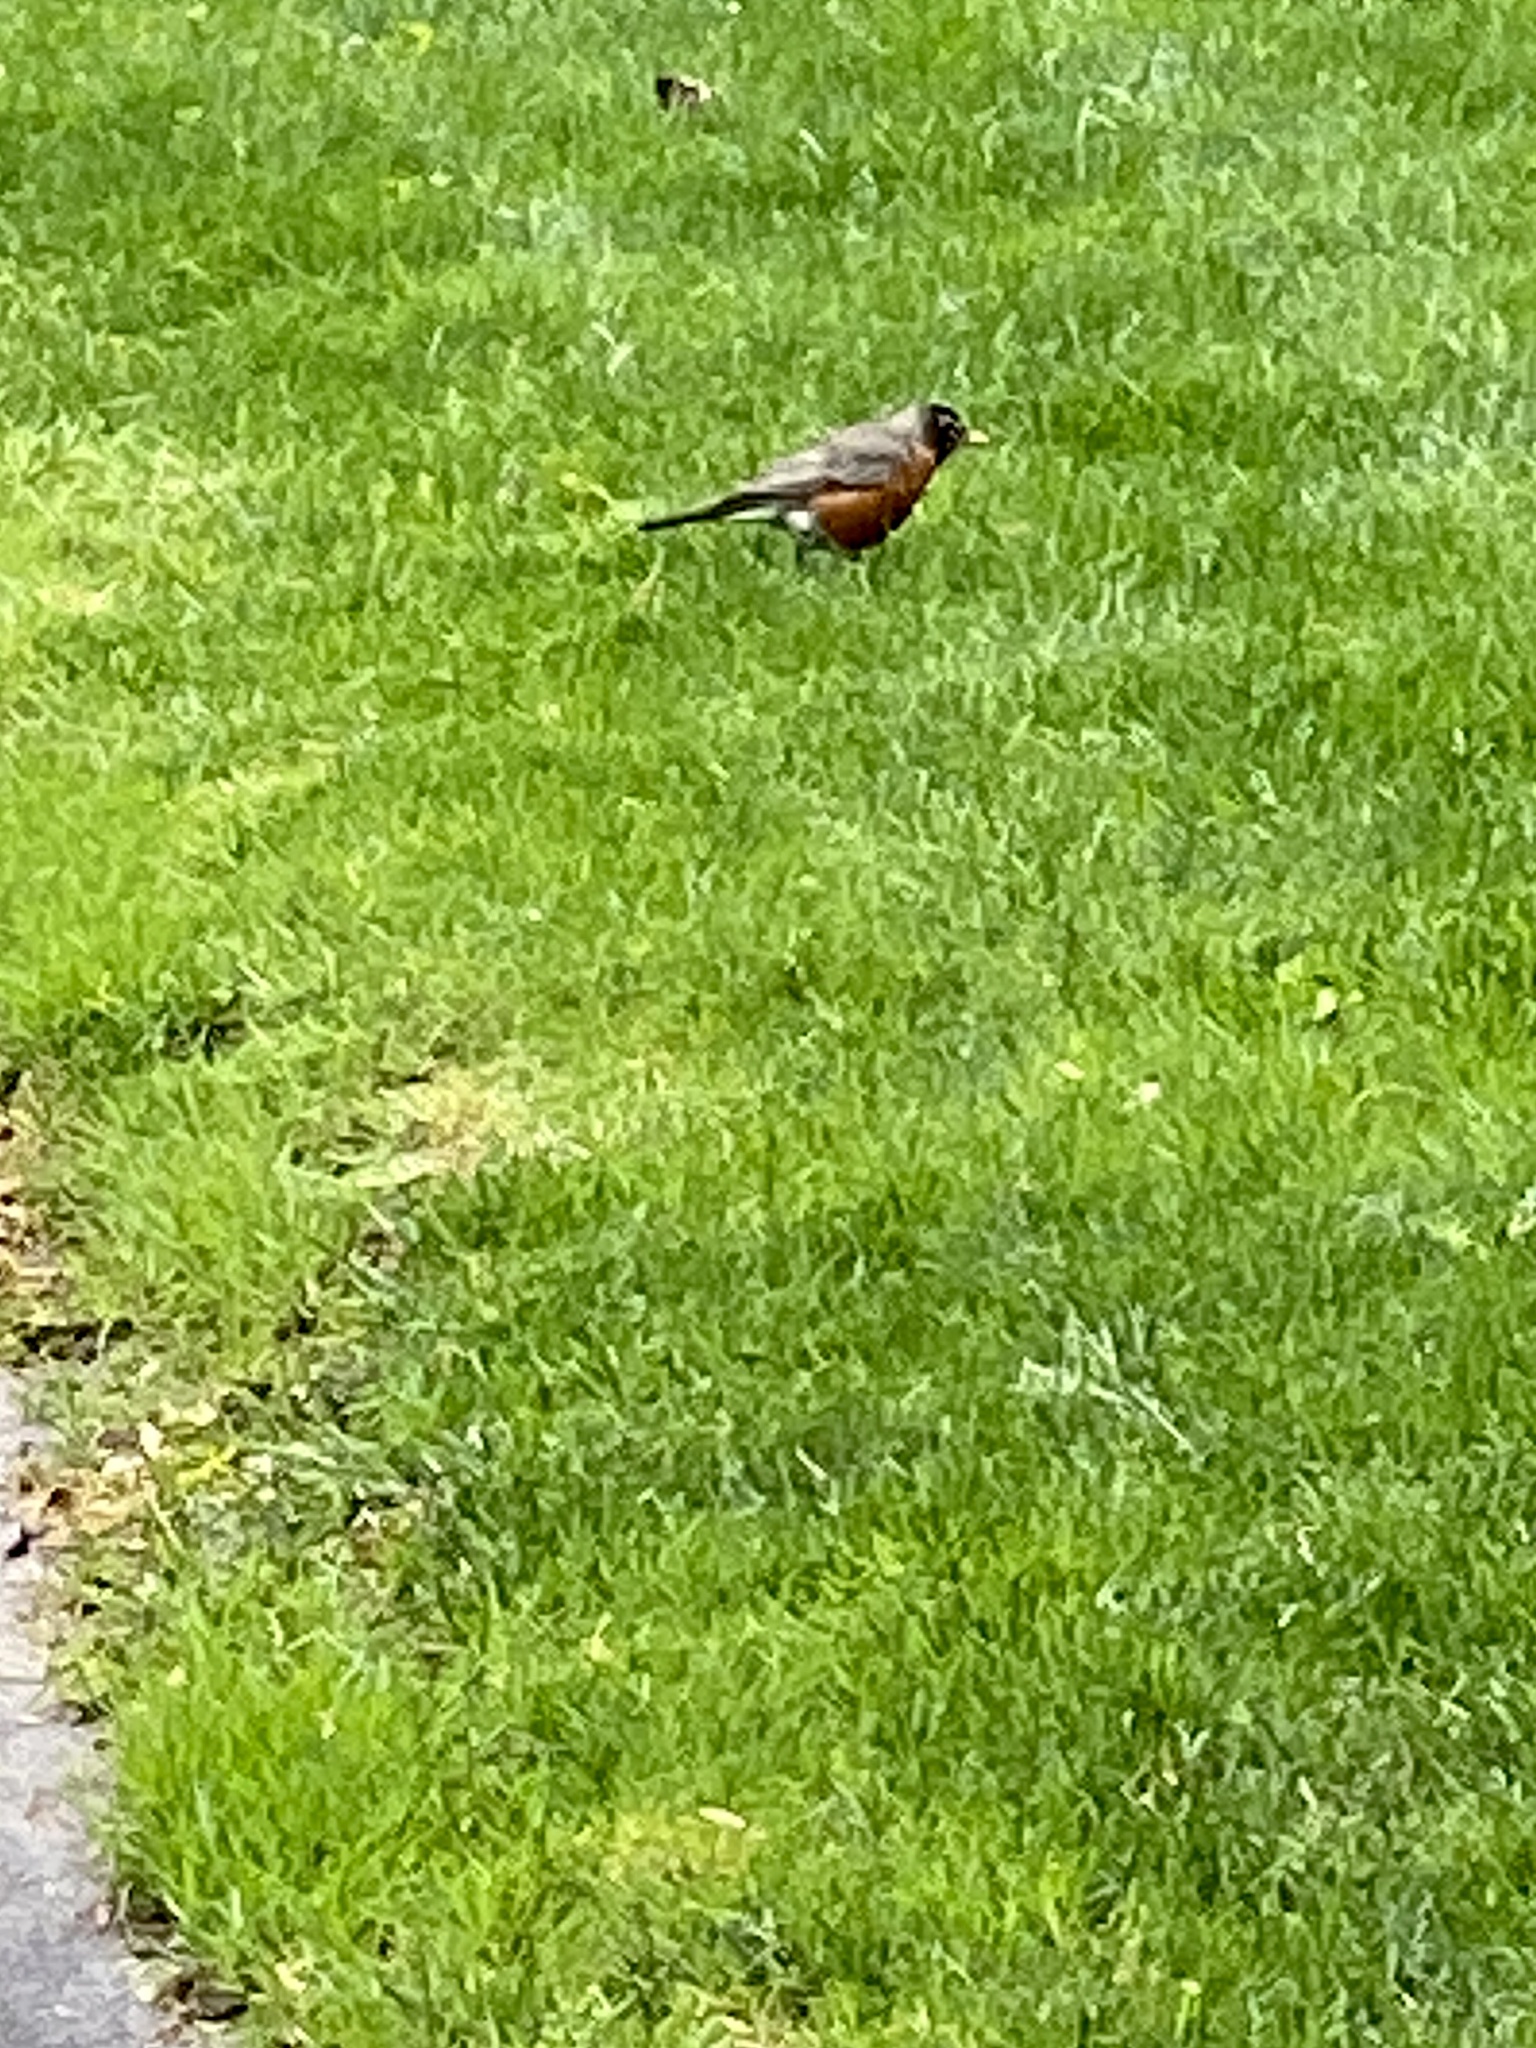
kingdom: Animalia
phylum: Chordata
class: Aves
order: Passeriformes
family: Turdidae
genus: Turdus
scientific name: Turdus migratorius
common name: American robin
